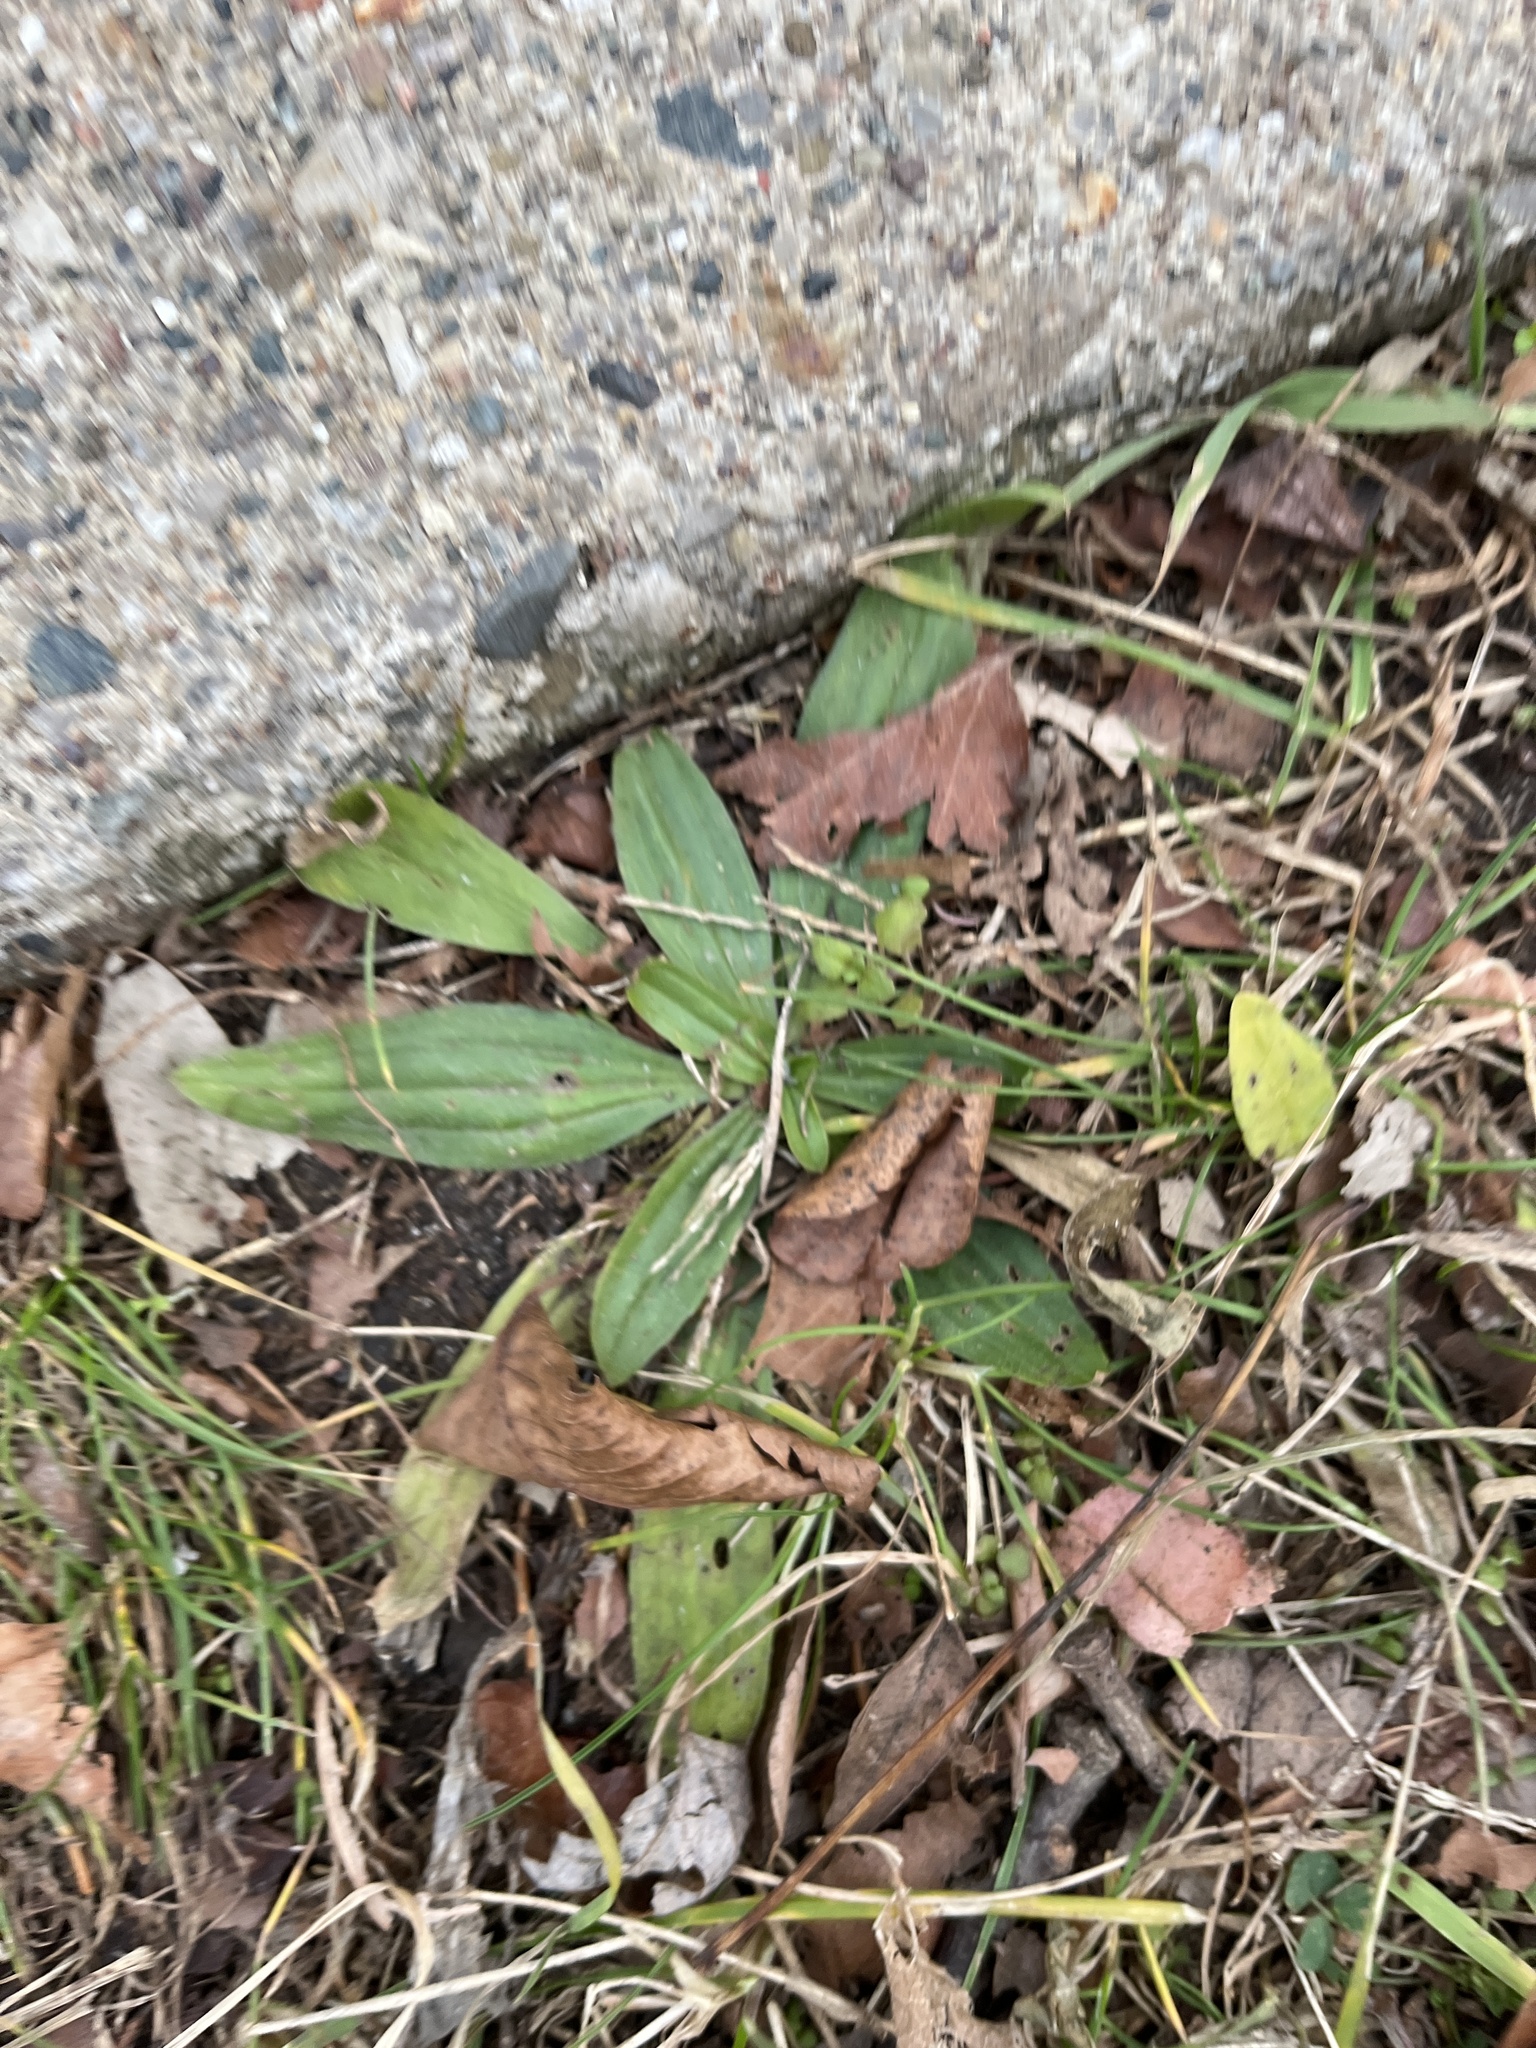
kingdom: Plantae
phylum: Tracheophyta
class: Magnoliopsida
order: Lamiales
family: Plantaginaceae
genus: Plantago
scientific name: Plantago lanceolata
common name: Ribwort plantain
